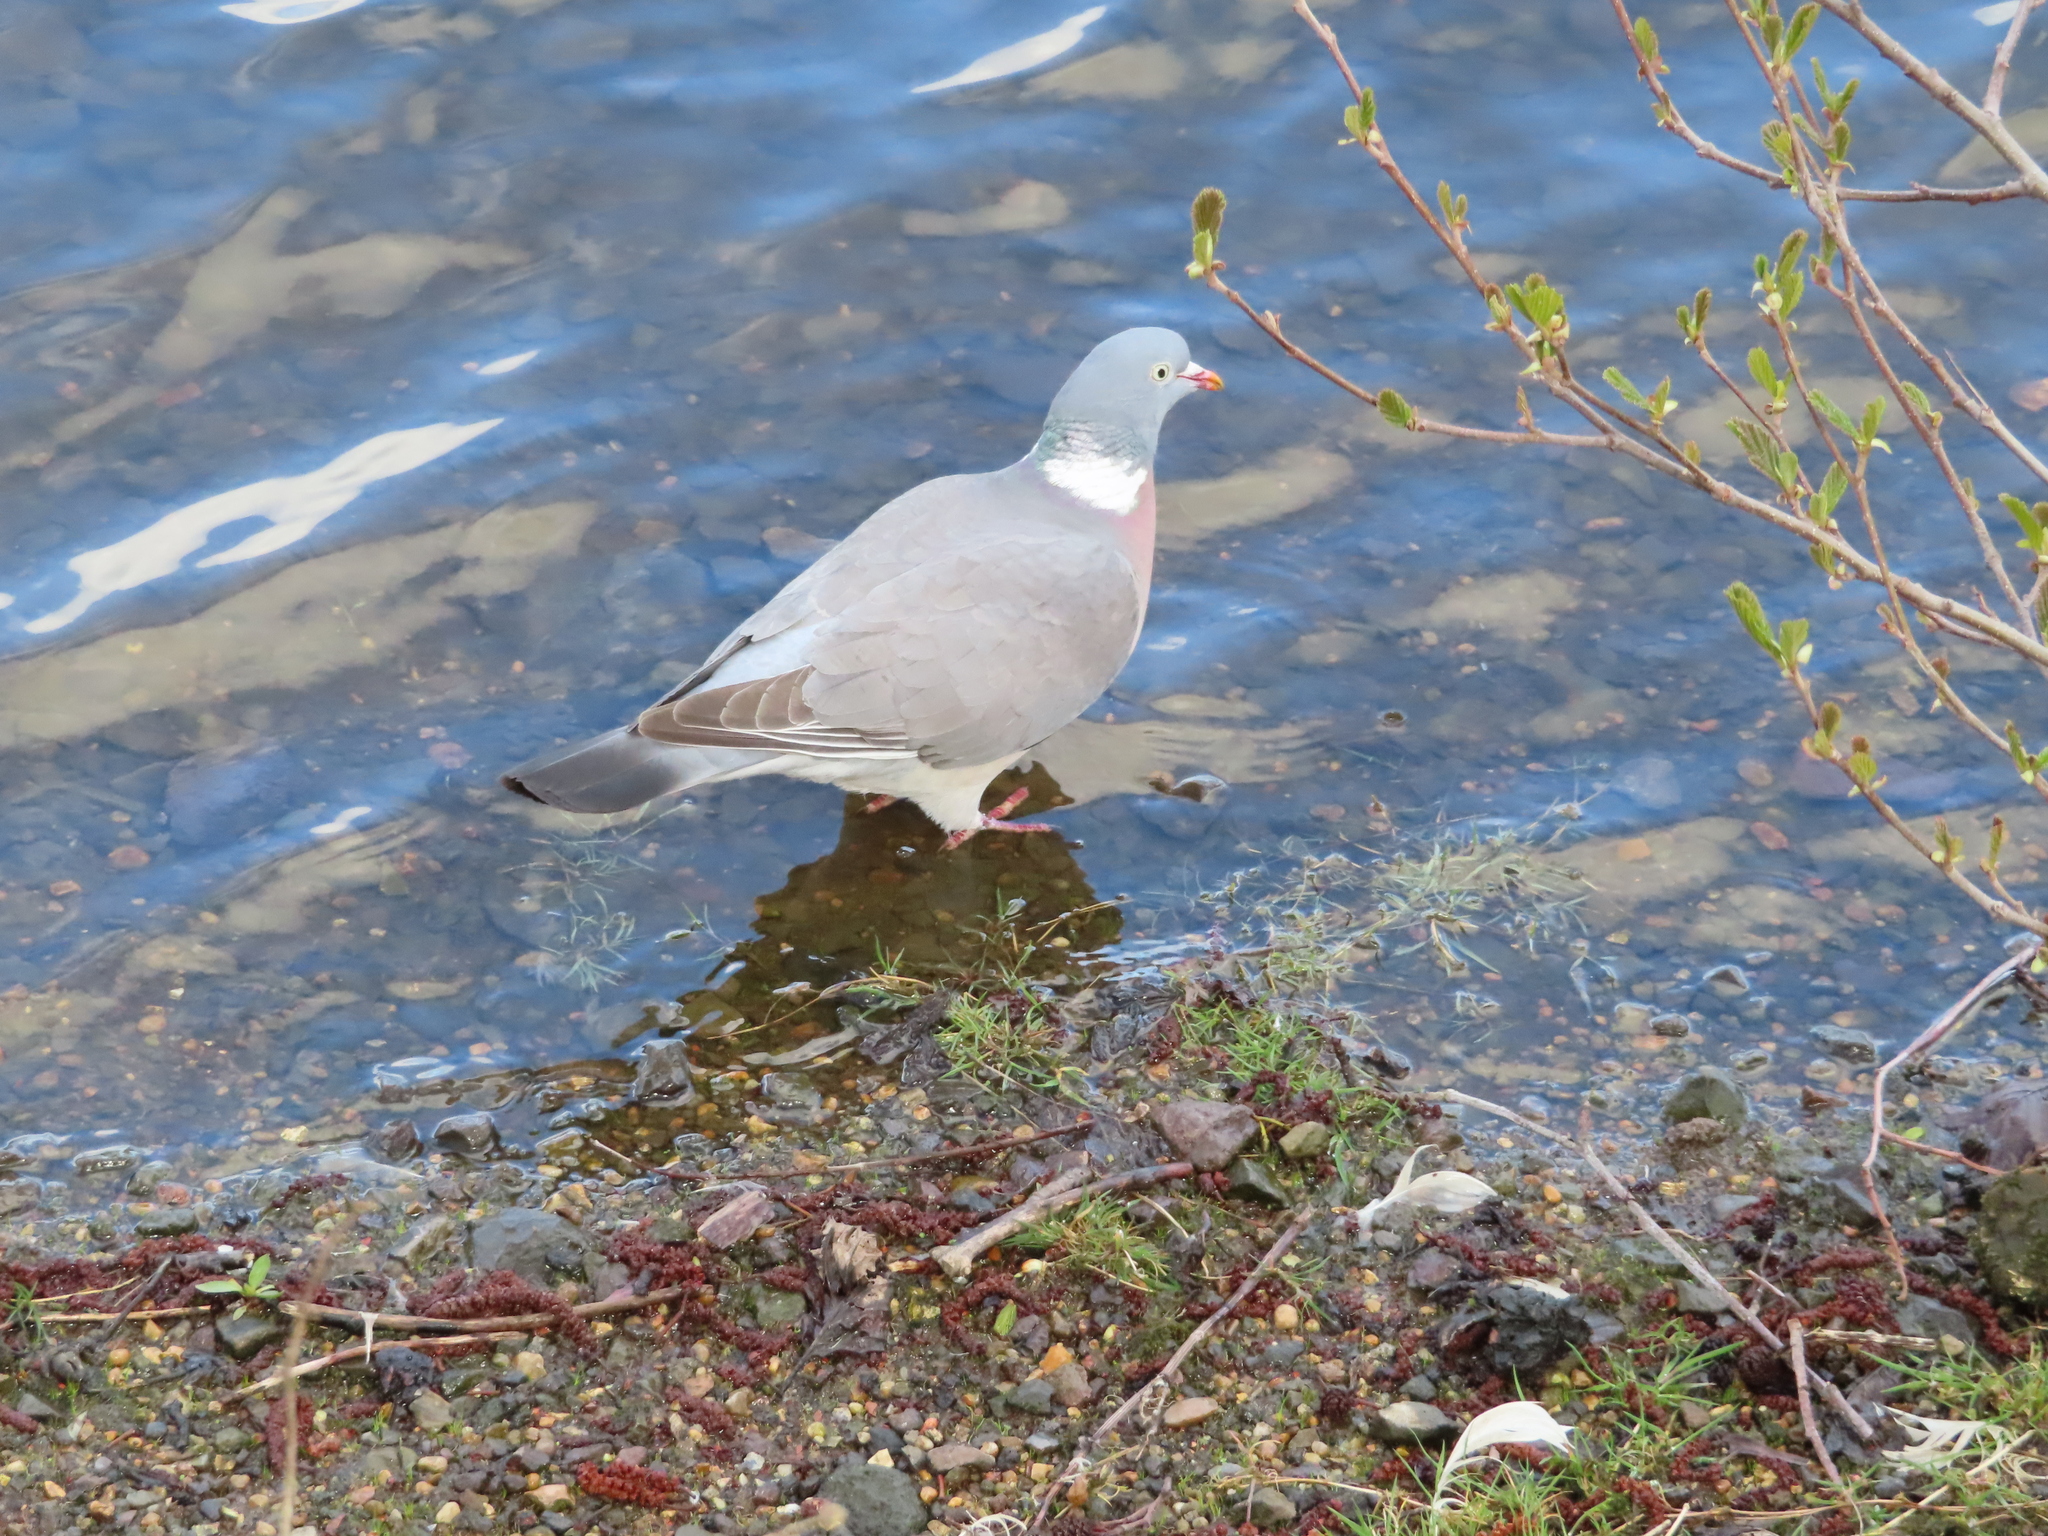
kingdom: Animalia
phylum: Chordata
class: Aves
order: Columbiformes
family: Columbidae
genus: Columba
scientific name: Columba palumbus
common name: Common wood pigeon
